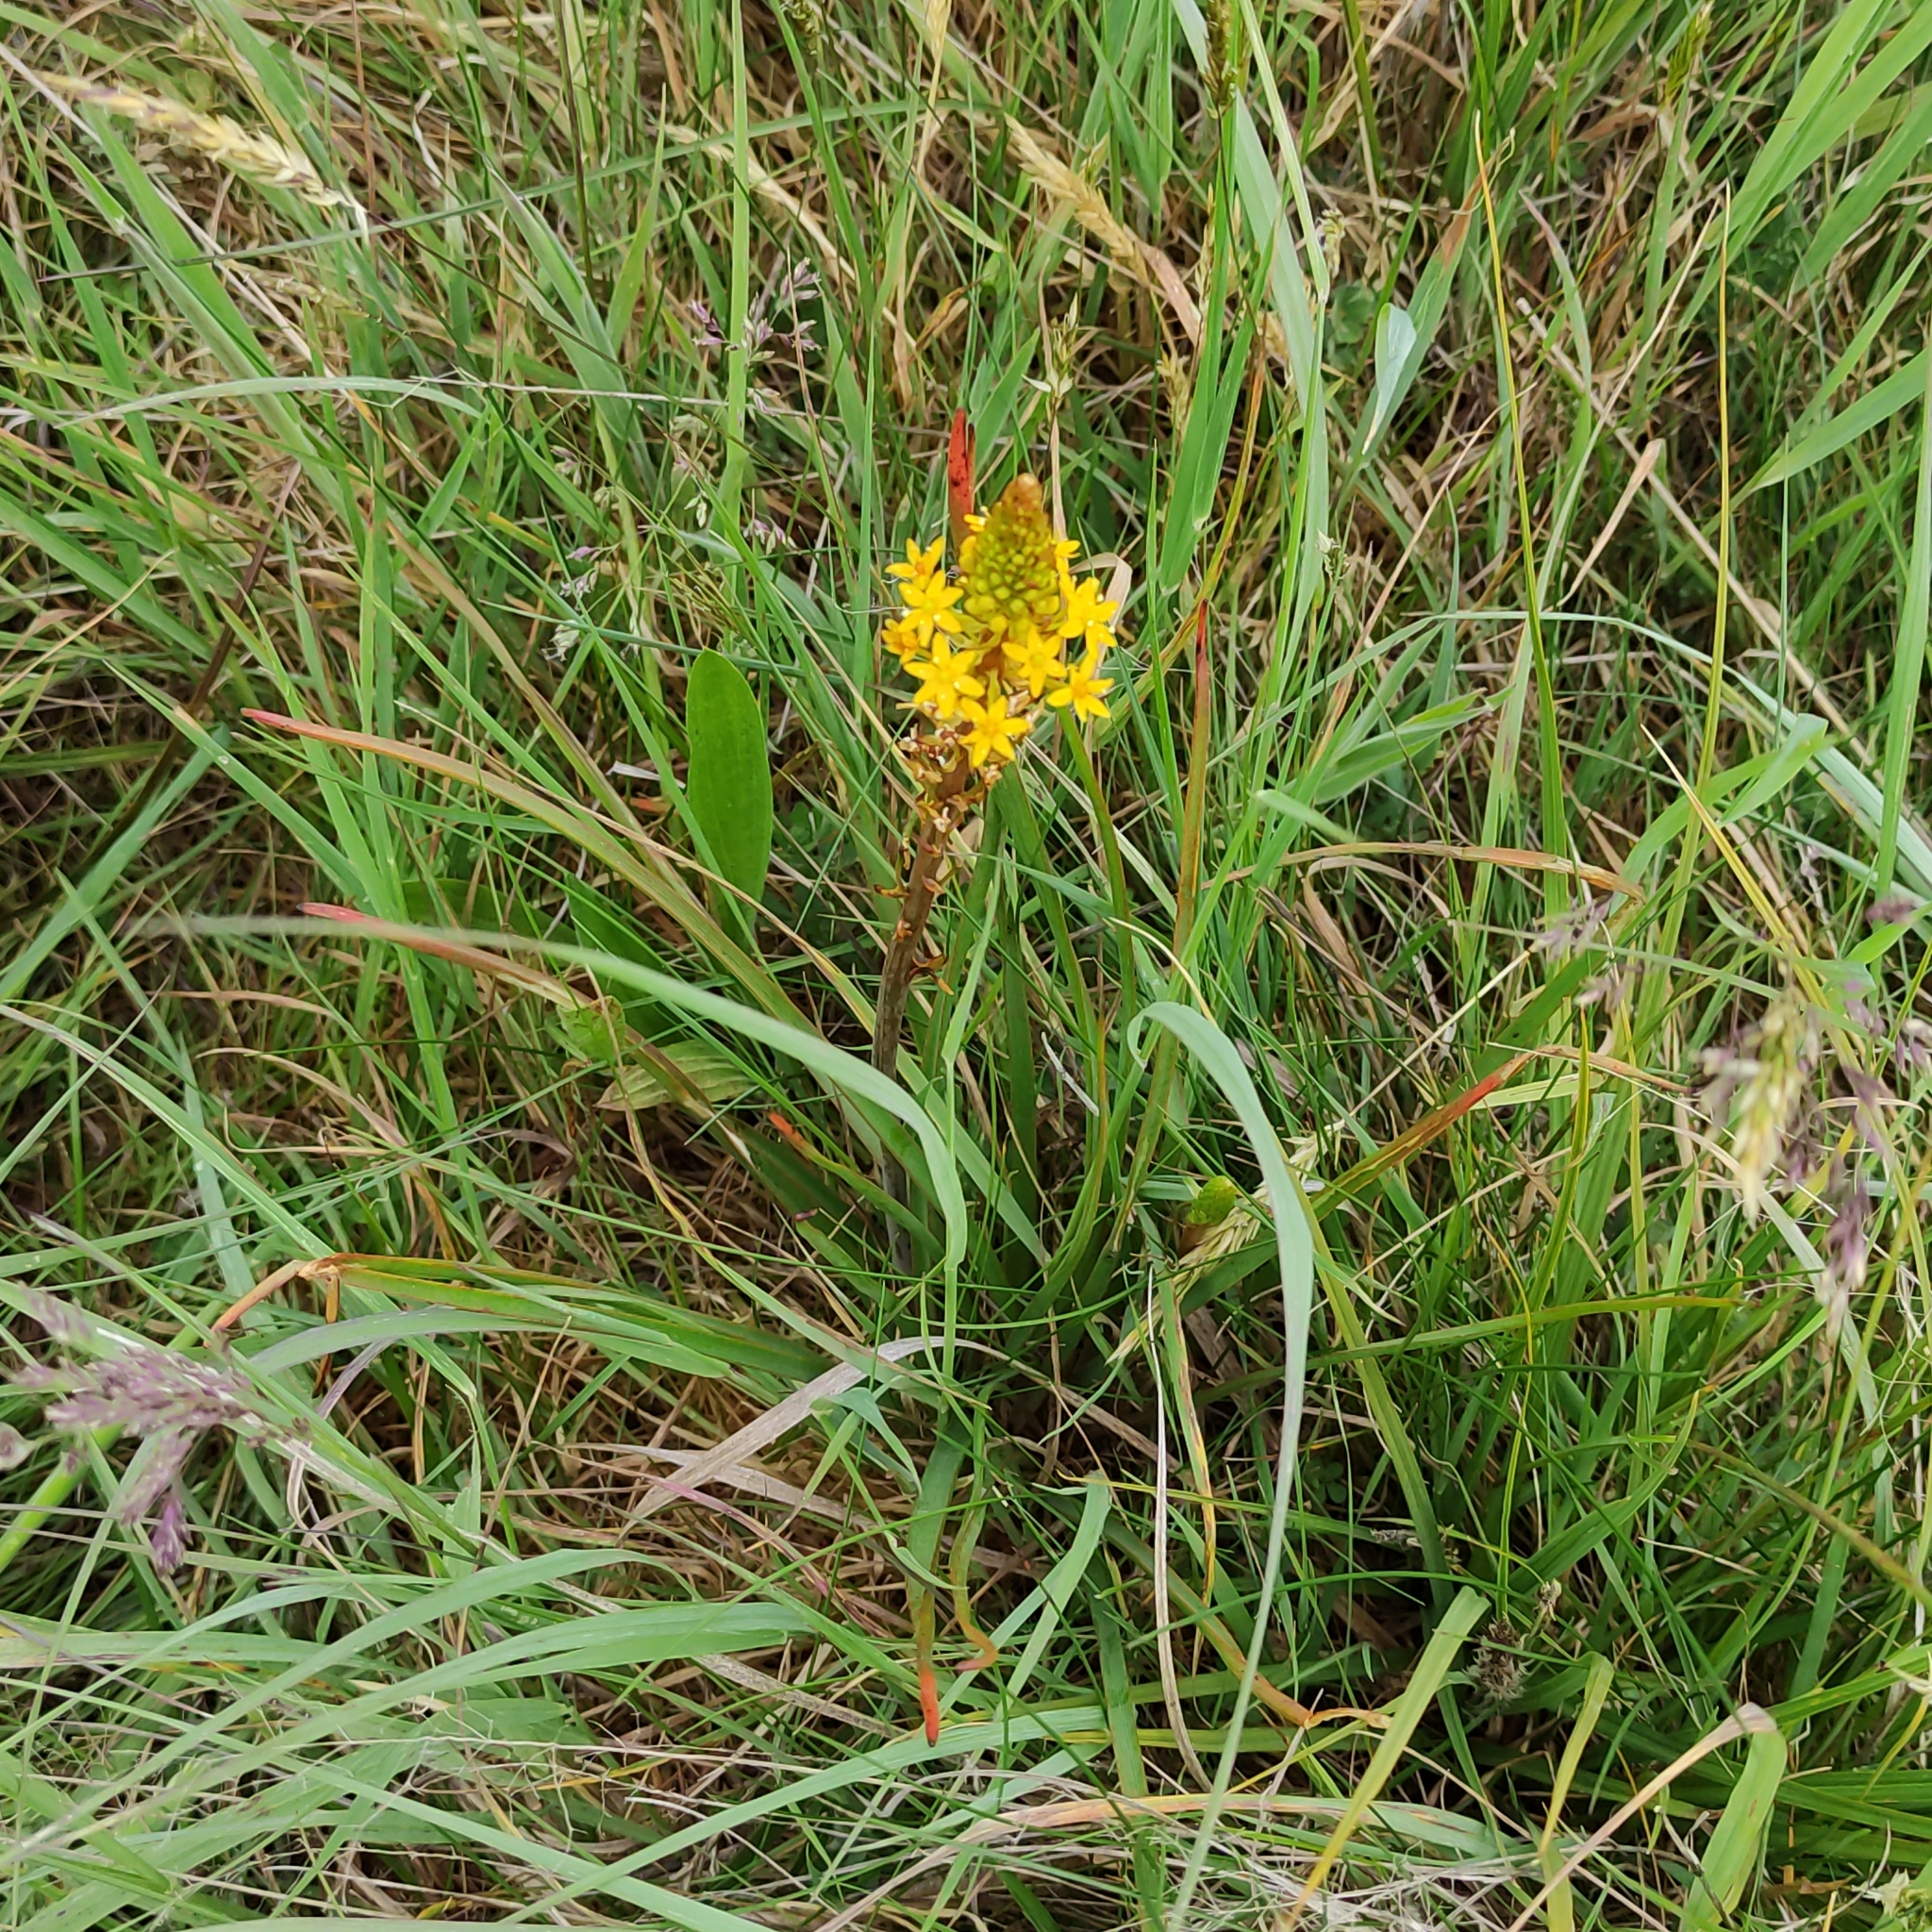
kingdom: Plantae
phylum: Tracheophyta
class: Liliopsida
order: Asparagales
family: Asphodelaceae
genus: Bulbinella
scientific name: Bulbinella angustifolia
